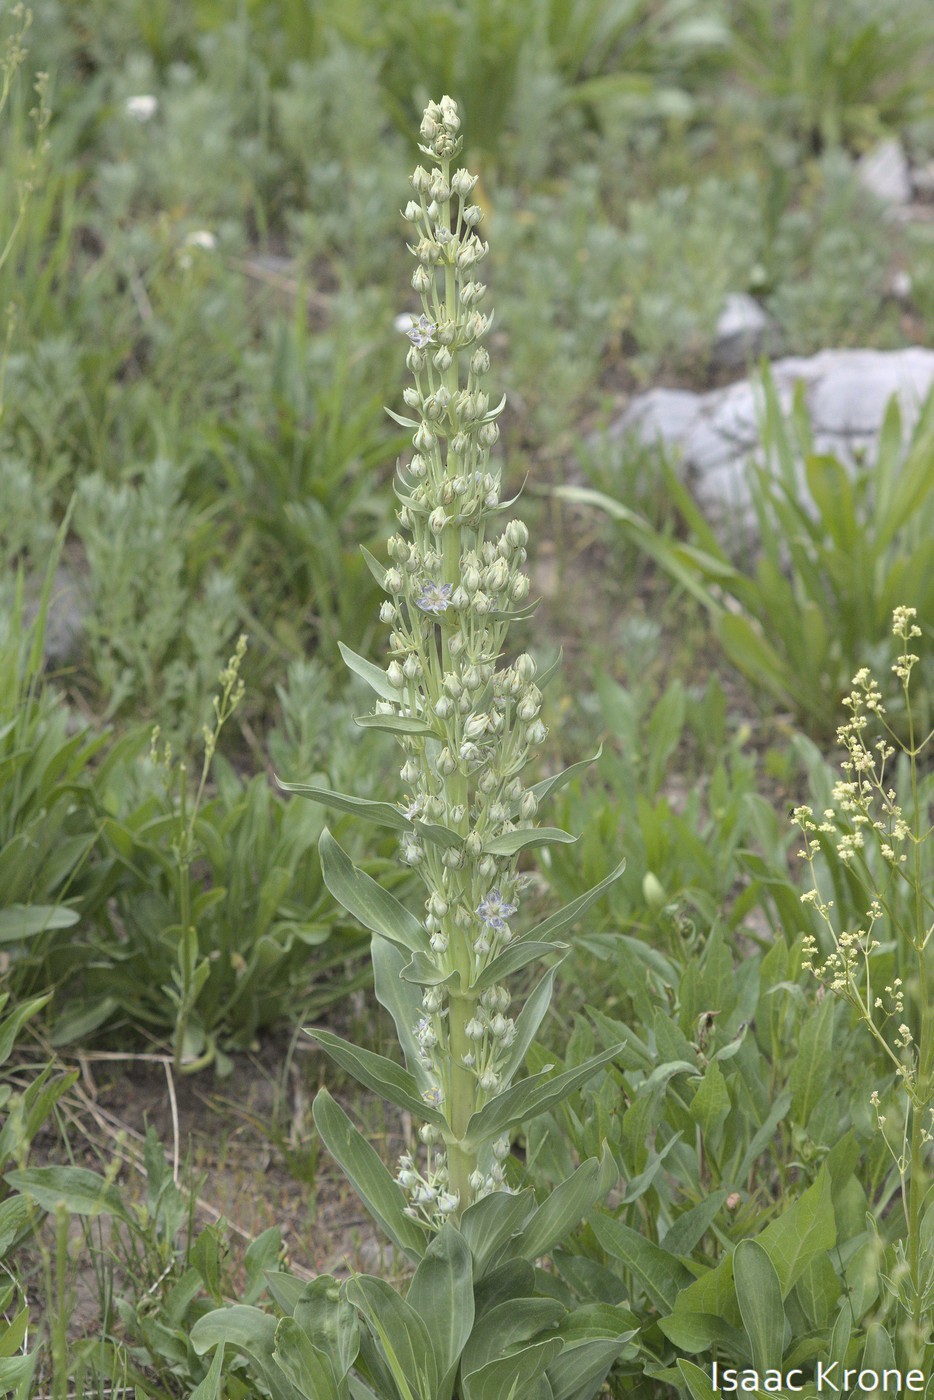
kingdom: Plantae
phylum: Tracheophyta
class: Magnoliopsida
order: Gentianales
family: Gentianaceae
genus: Frasera
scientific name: Frasera speciosa
